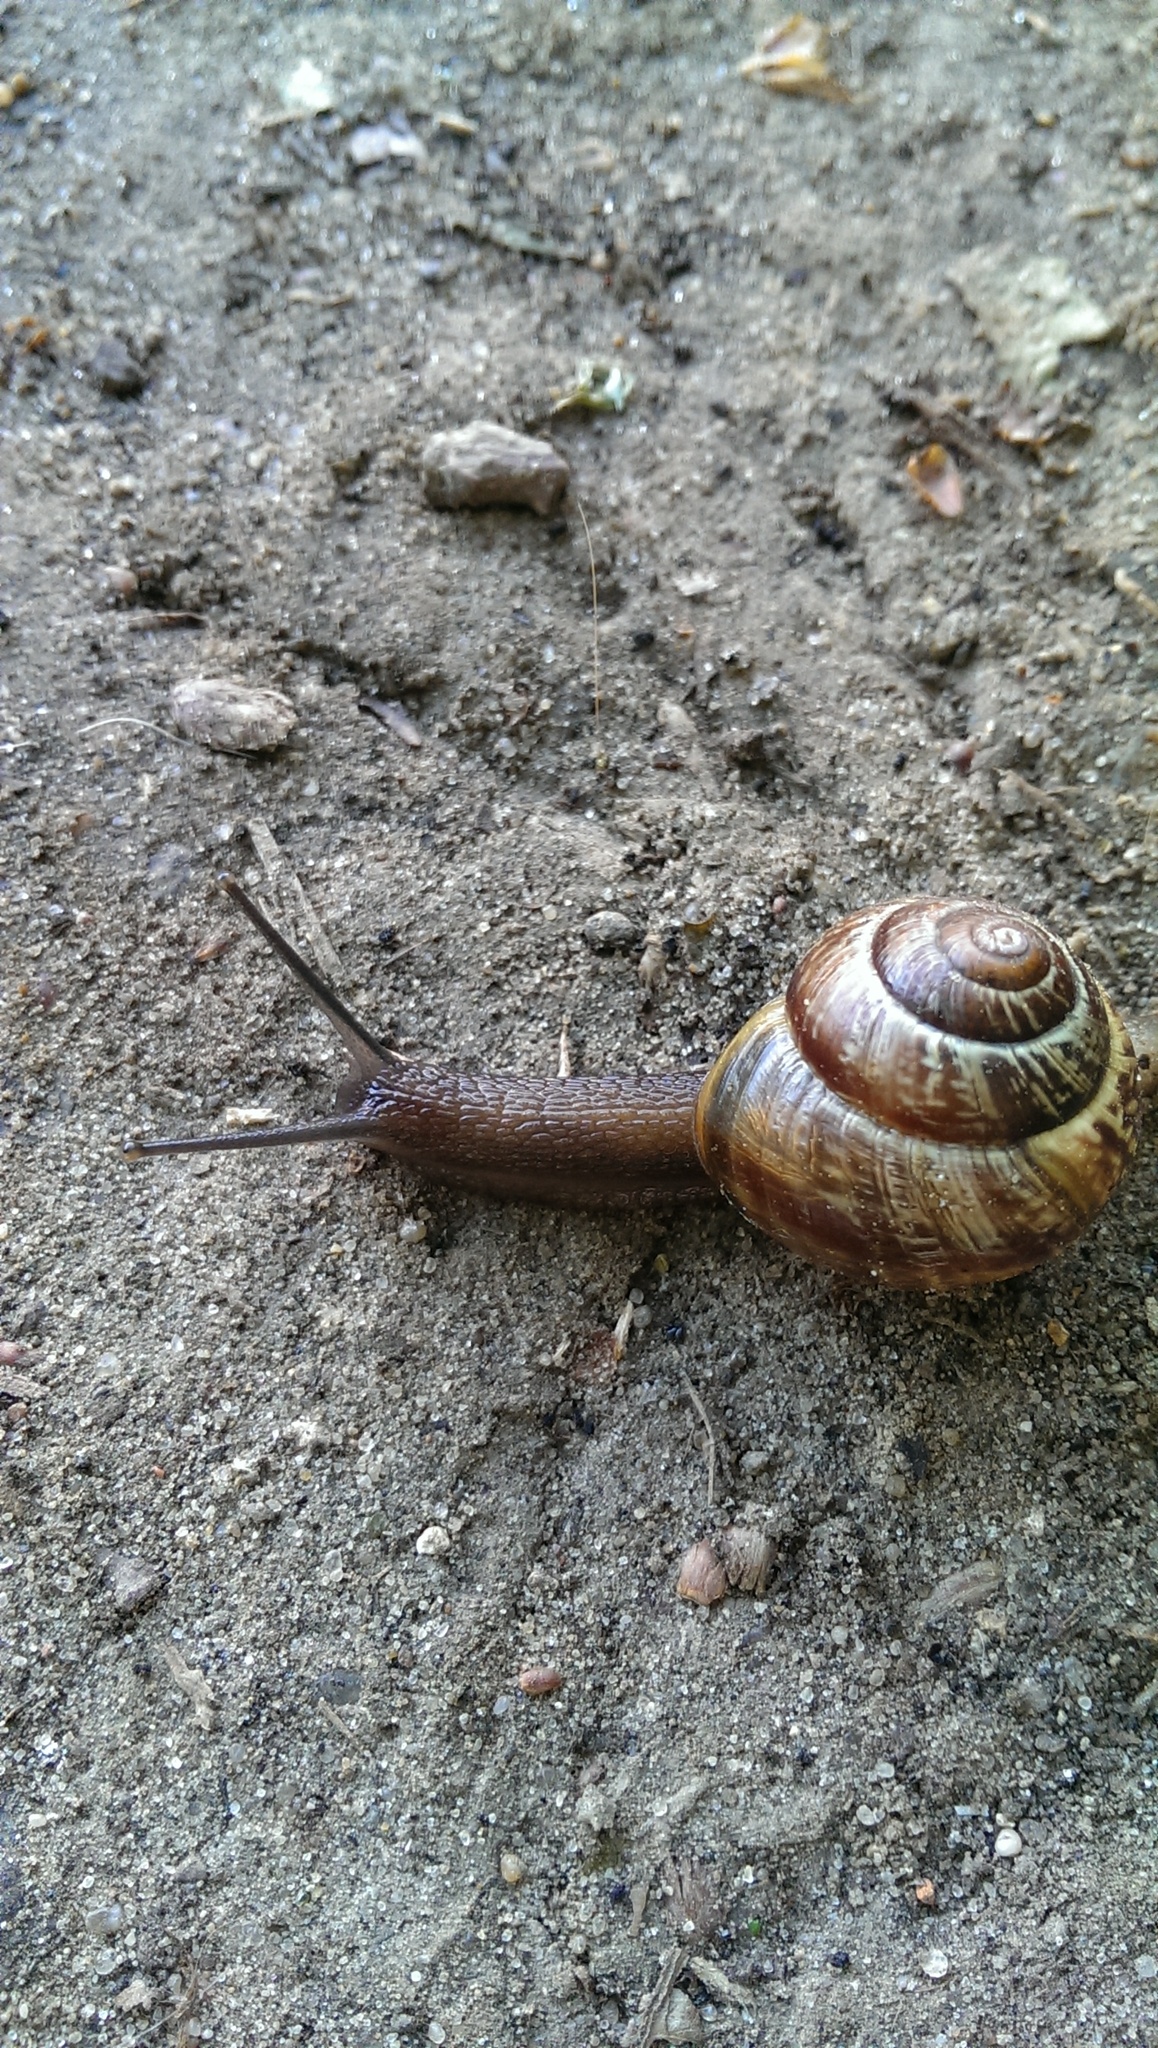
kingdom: Animalia
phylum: Mollusca
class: Gastropoda
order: Stylommatophora
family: Helicidae
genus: Arianta
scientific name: Arianta arbustorum
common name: Copse snail
